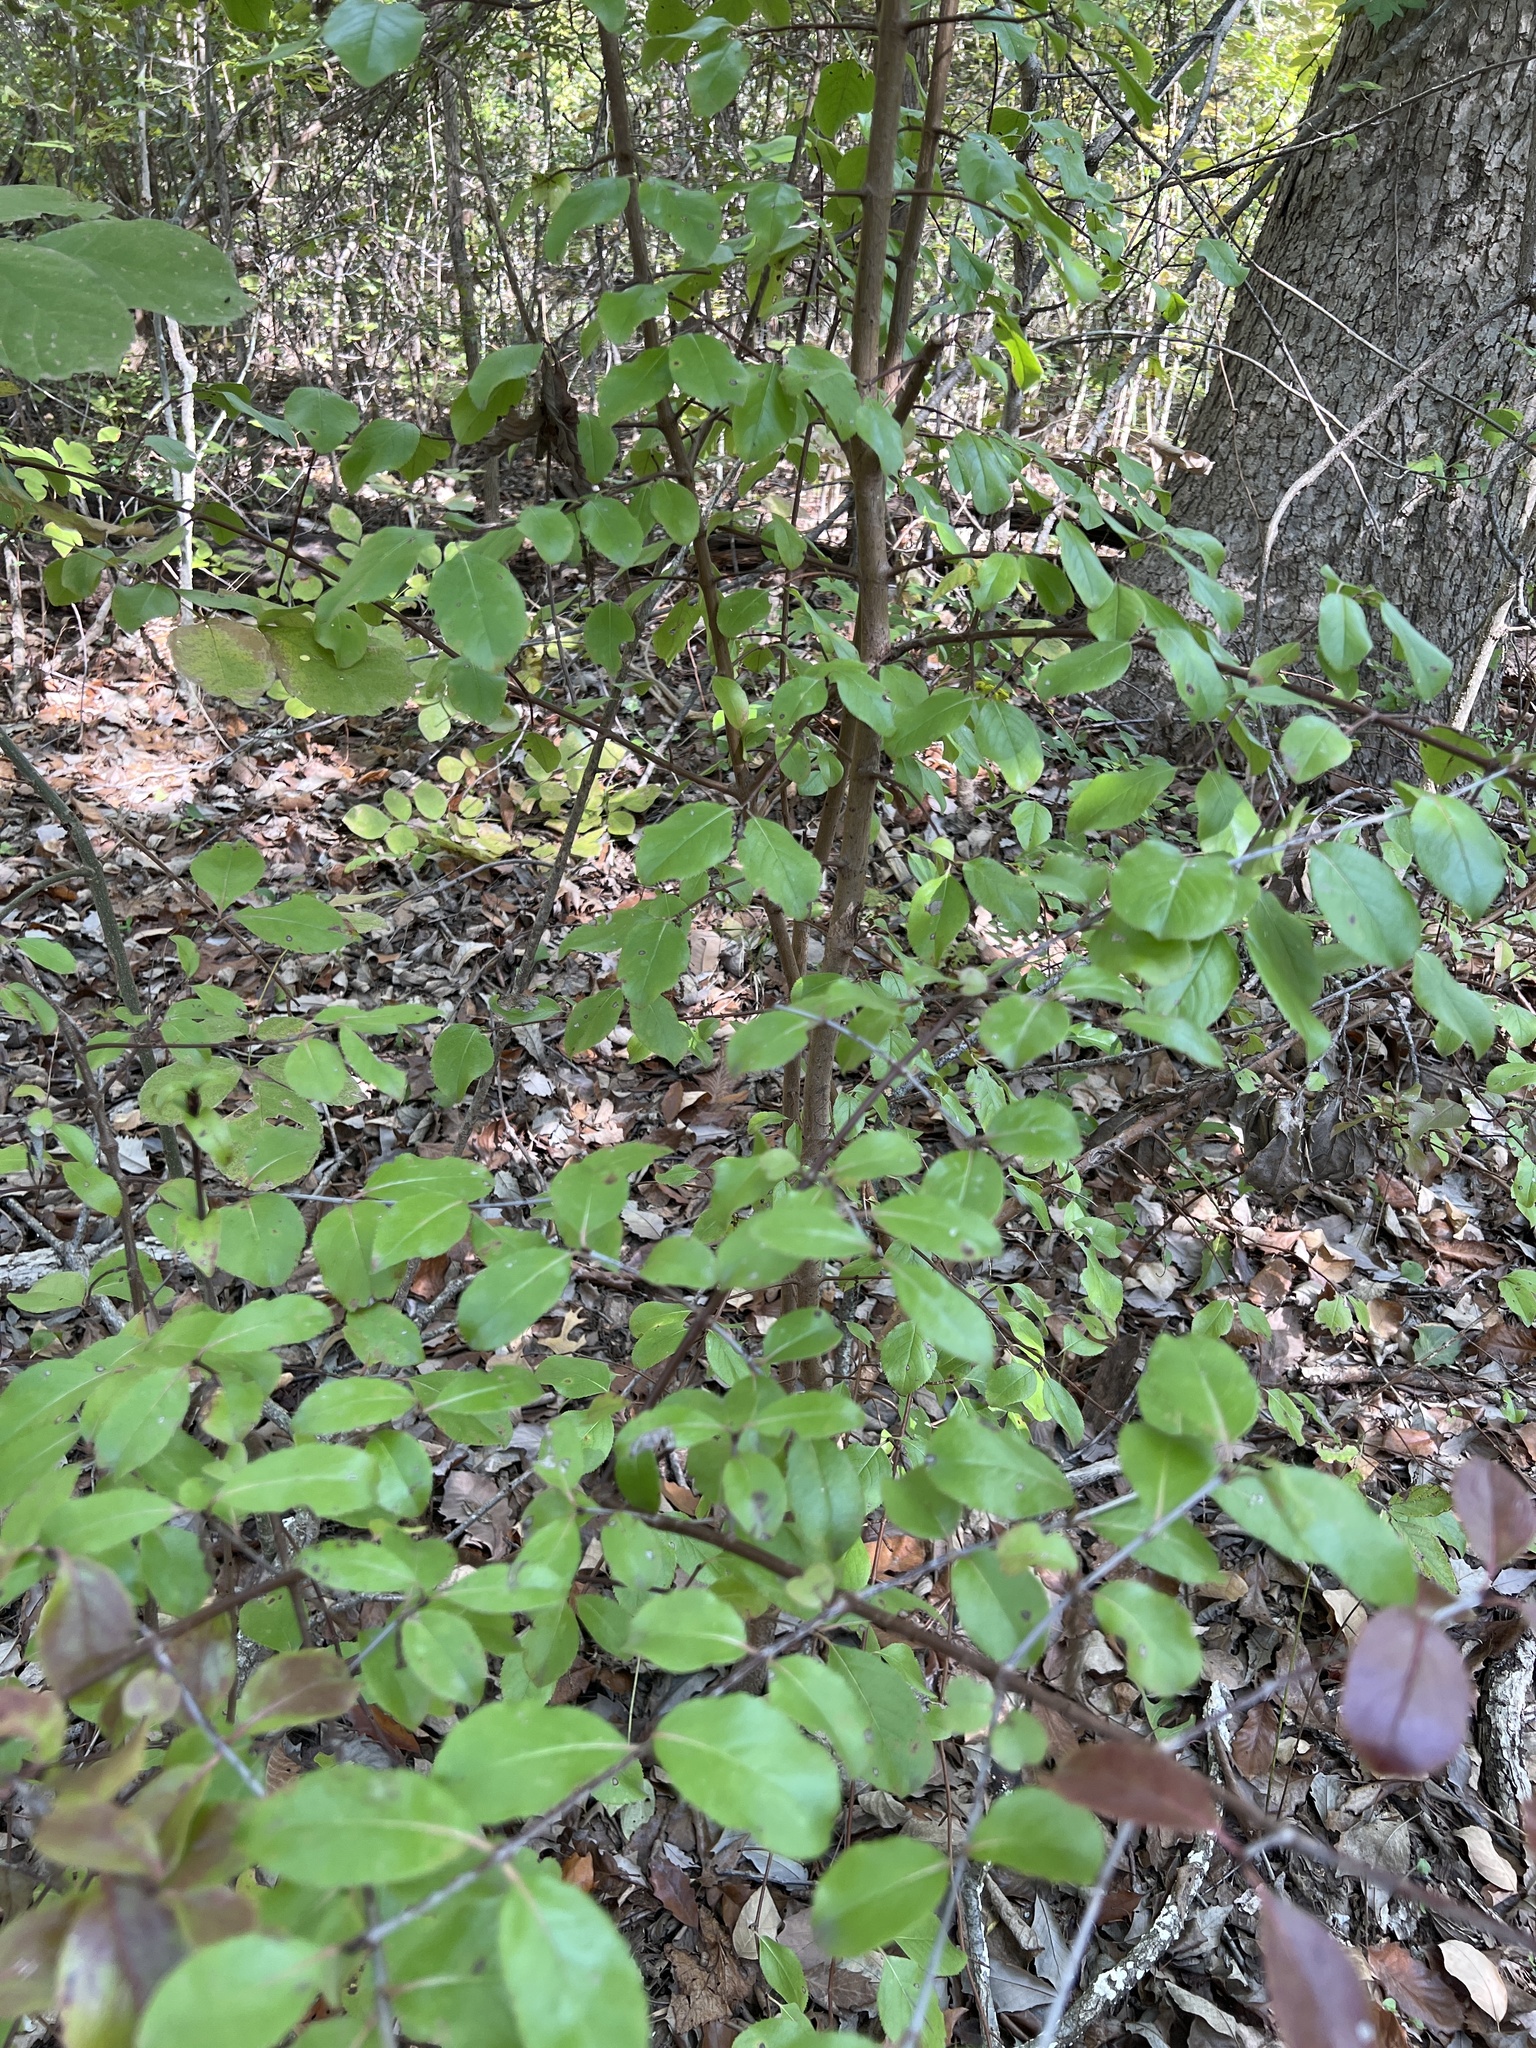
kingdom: Plantae
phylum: Tracheophyta
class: Magnoliopsida
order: Dipsacales
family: Viburnaceae
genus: Viburnum
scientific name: Viburnum rufidulum
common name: Blue haw
